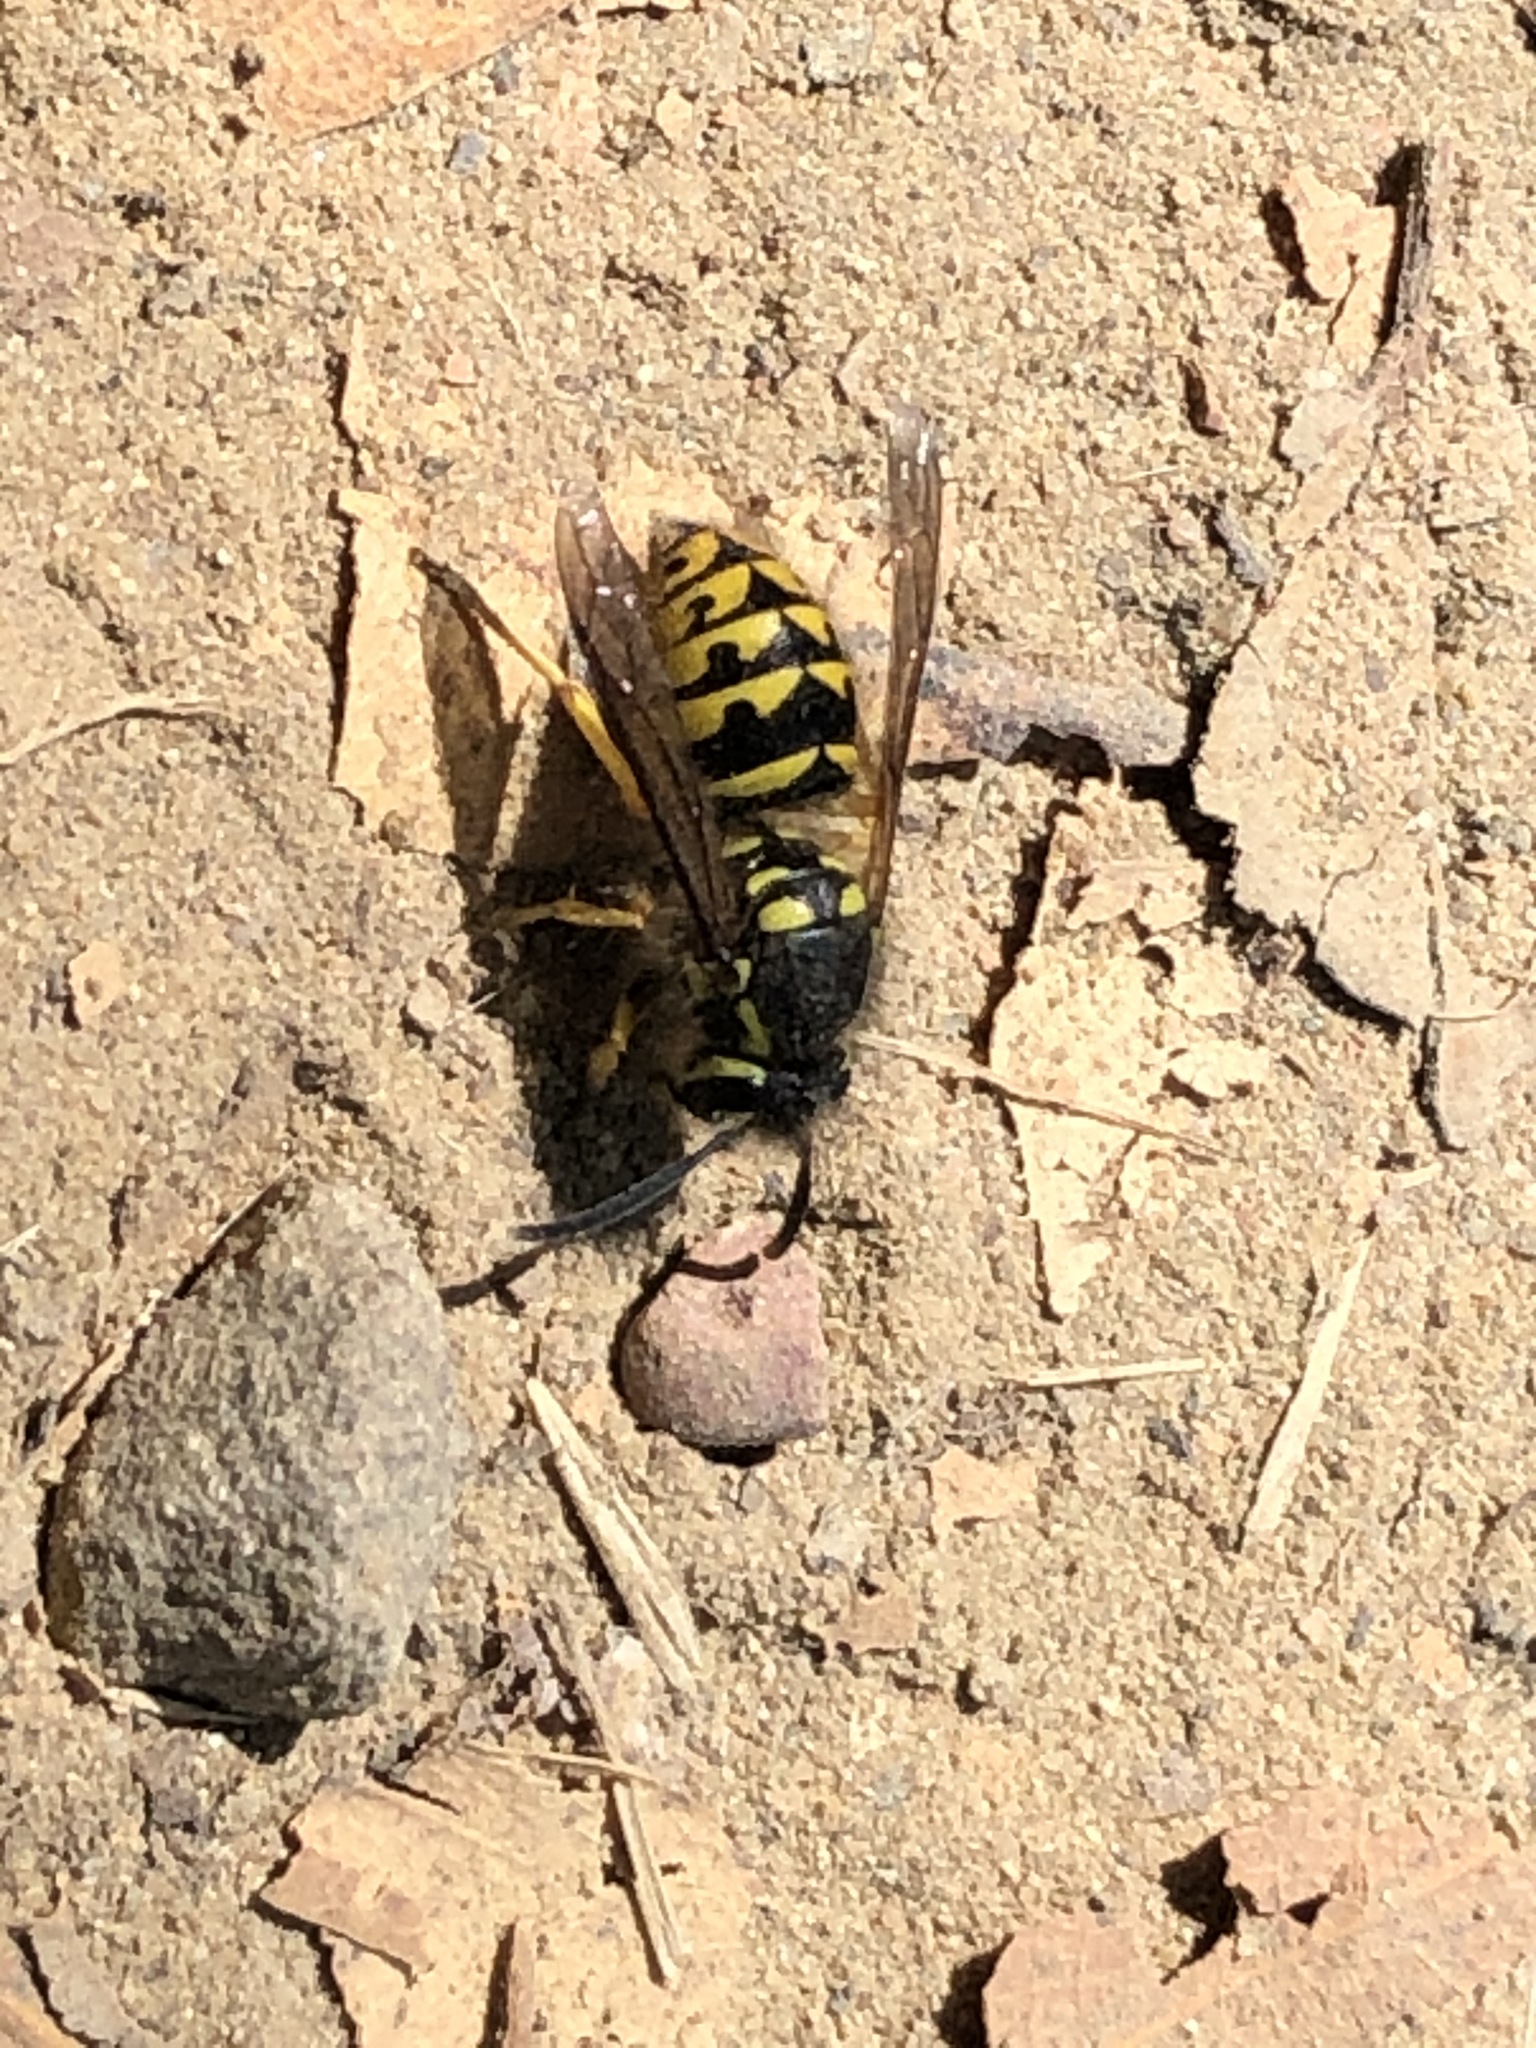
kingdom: Animalia
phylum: Arthropoda
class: Insecta
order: Hymenoptera
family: Vespidae
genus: Dolichovespula
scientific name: Dolichovespula arenaria
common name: Aerial yellowjacket
